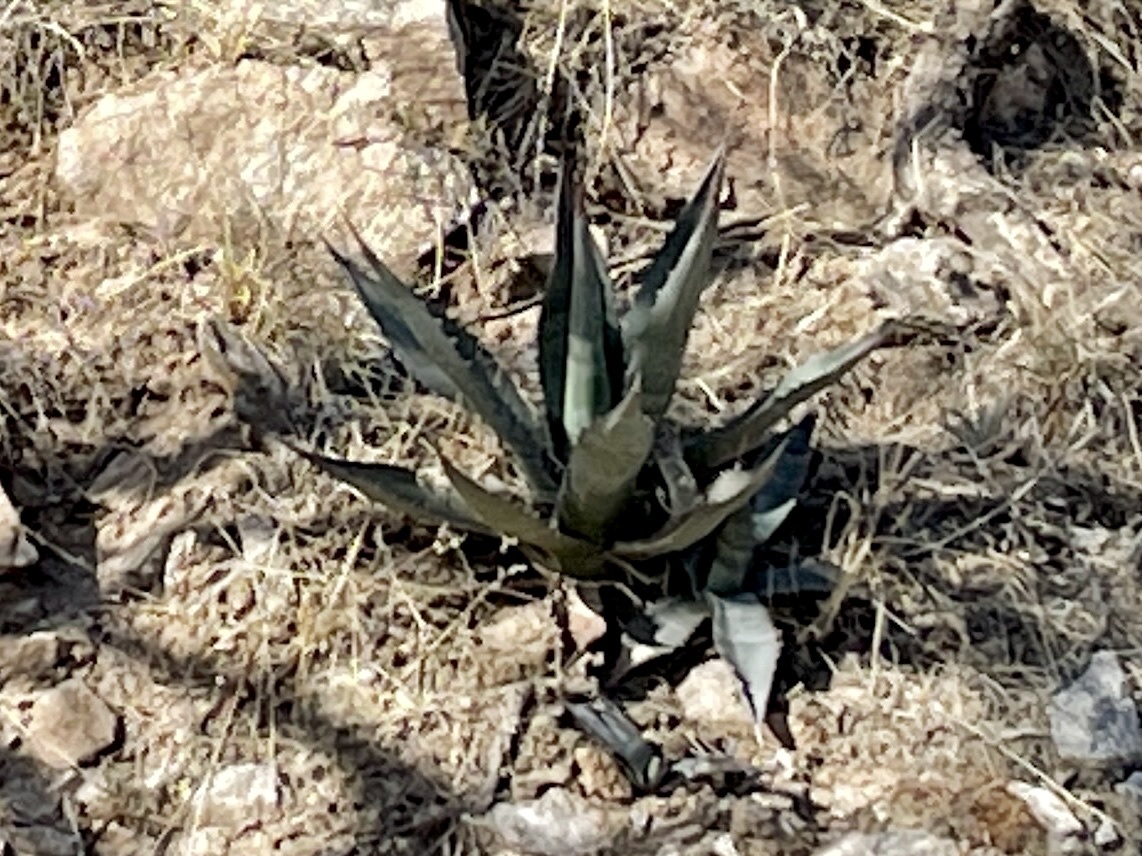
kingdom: Plantae
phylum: Tracheophyta
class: Liliopsida
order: Asparagales
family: Asparagaceae
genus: Agave
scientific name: Agave palmeri
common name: Palmer agave
